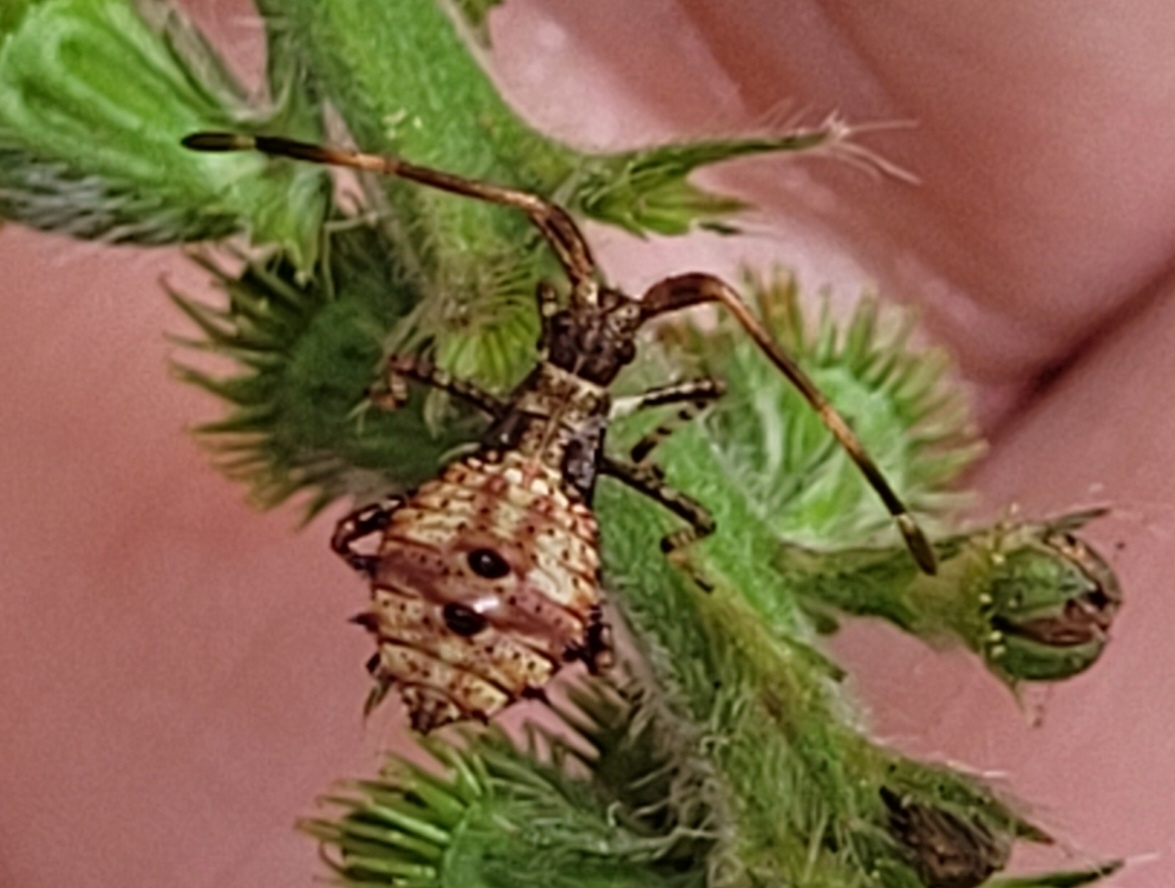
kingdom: Animalia
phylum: Arthropoda
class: Insecta
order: Hemiptera
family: Coreidae
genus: Coreus
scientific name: Coreus marginatus
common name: Dock bug
